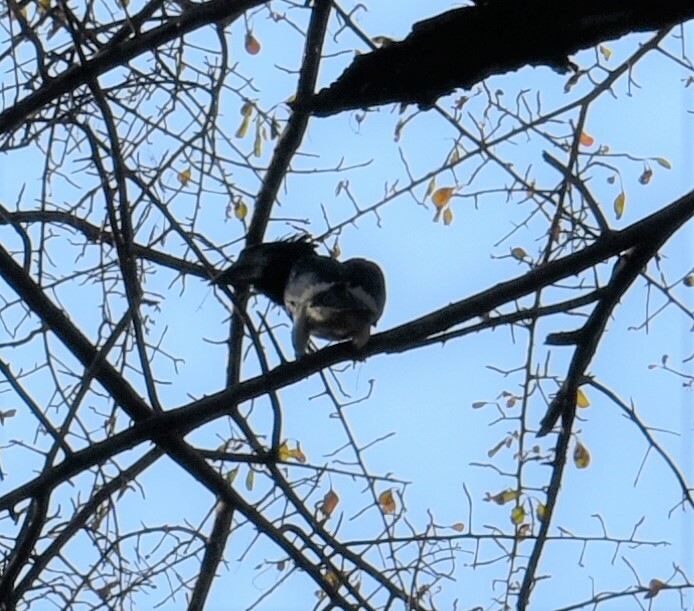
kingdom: Animalia
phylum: Chordata
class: Aves
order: Bucerotiformes
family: Bucerotidae
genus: Bycanistes
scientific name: Bycanistes bucinator
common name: Trumpeter hornbill
